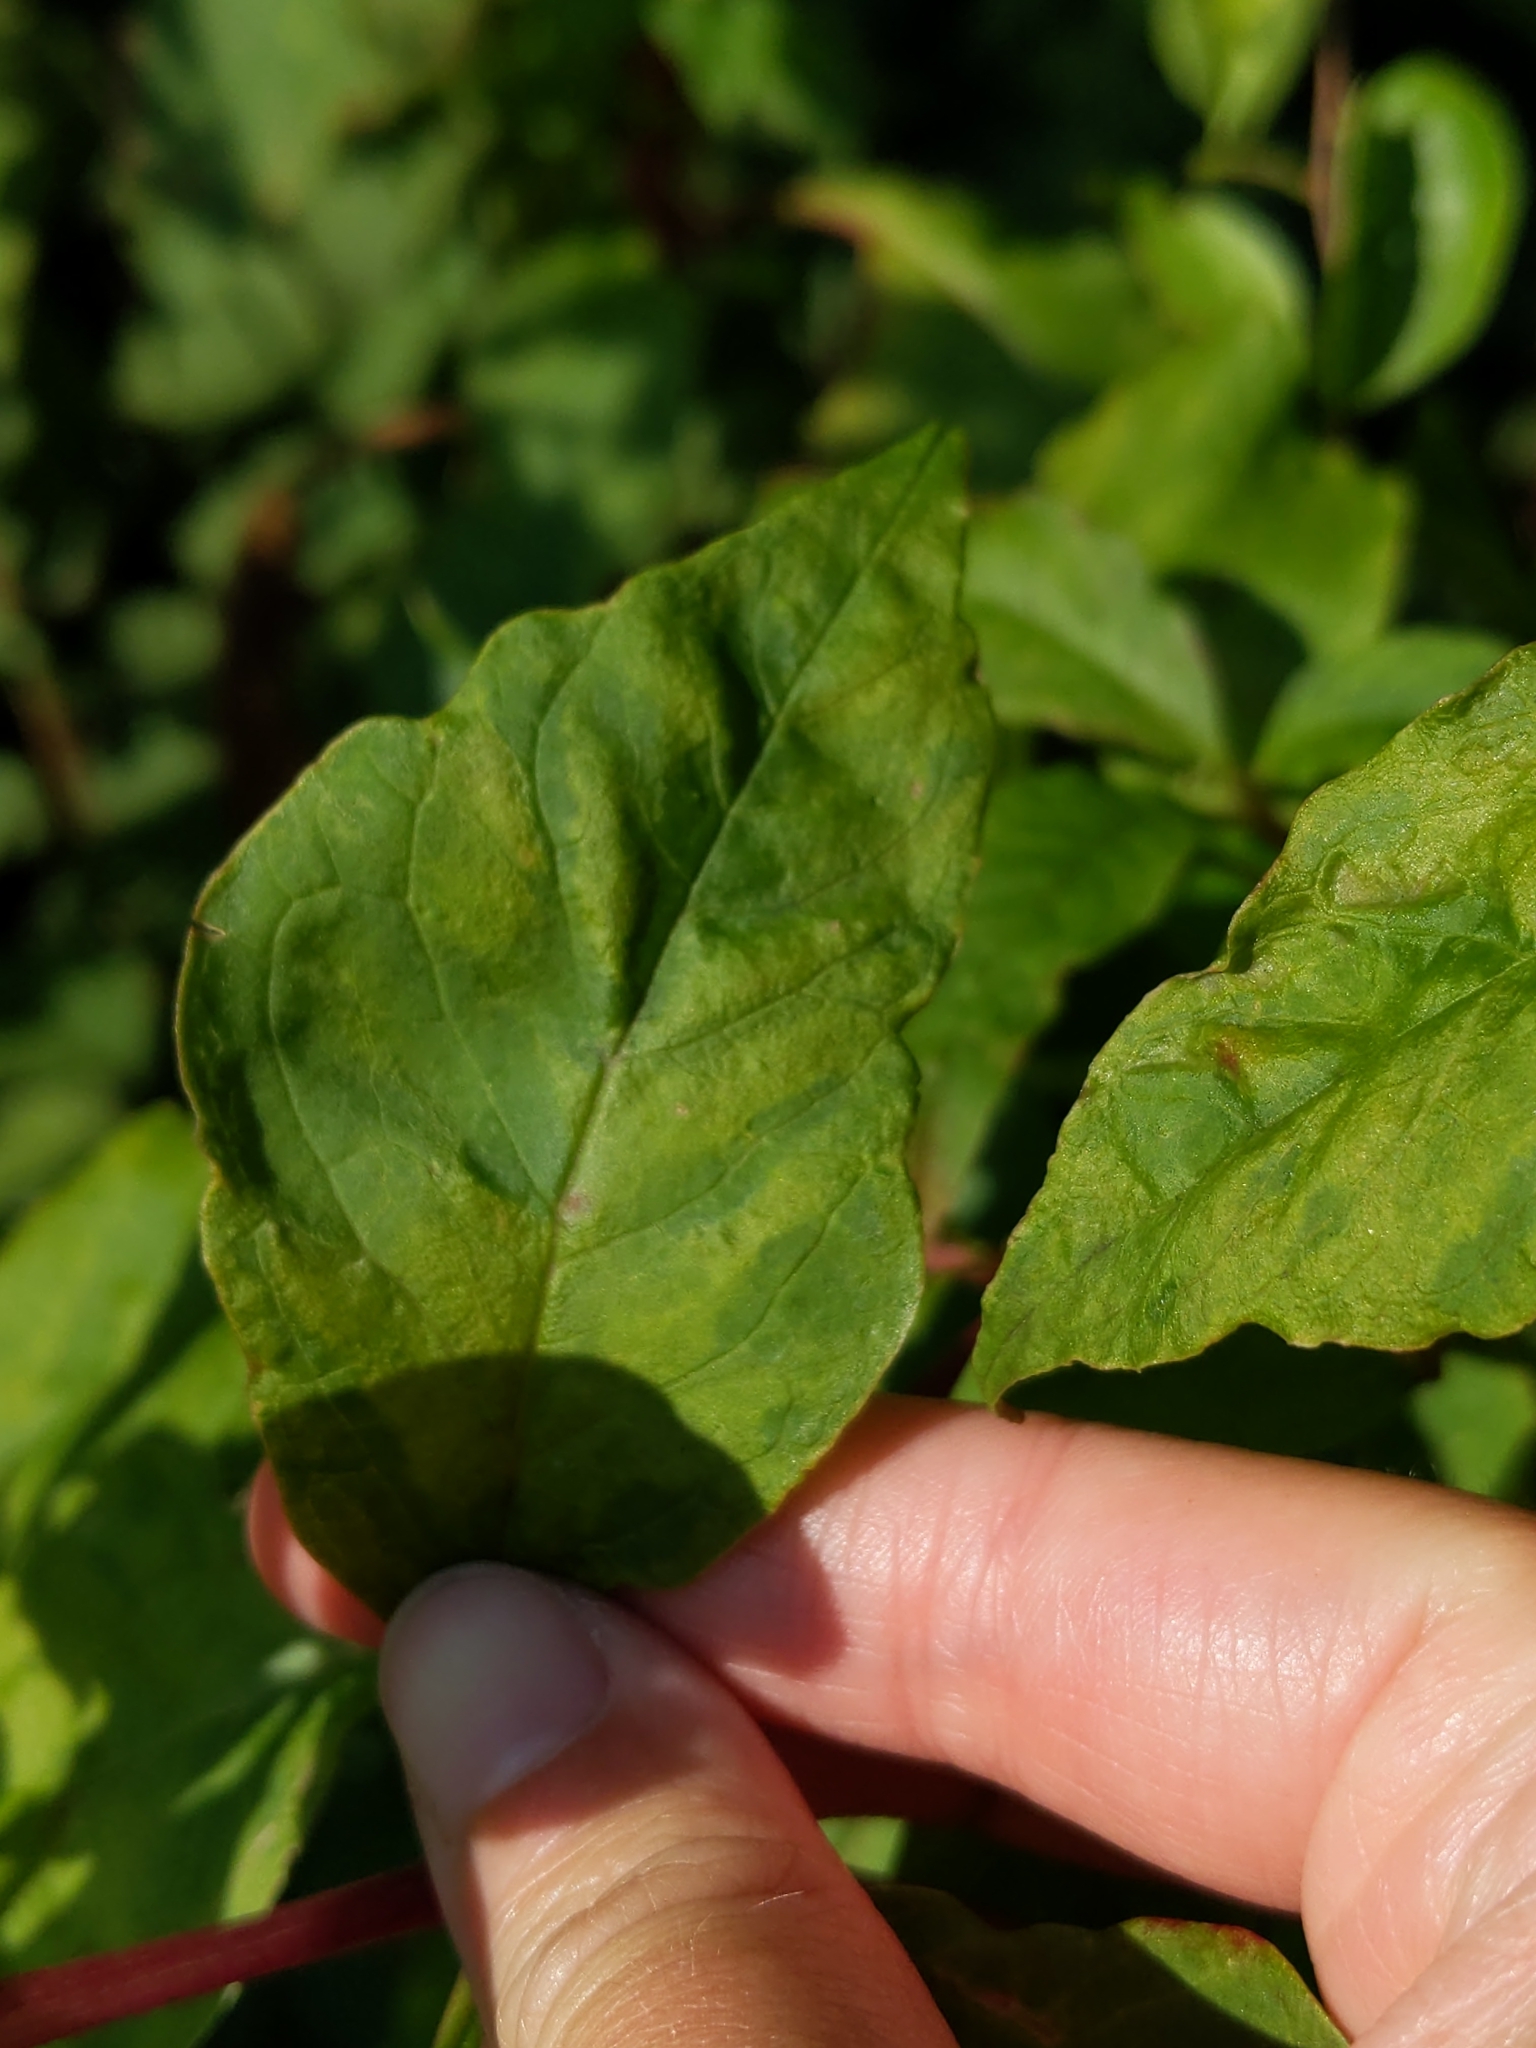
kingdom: Viruses
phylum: Pisuviricota
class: Stelpaviricetes
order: Patatavirales
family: Potyviridae
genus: Potyvirus
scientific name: Potyvirus Pokeweed mosaic virus
